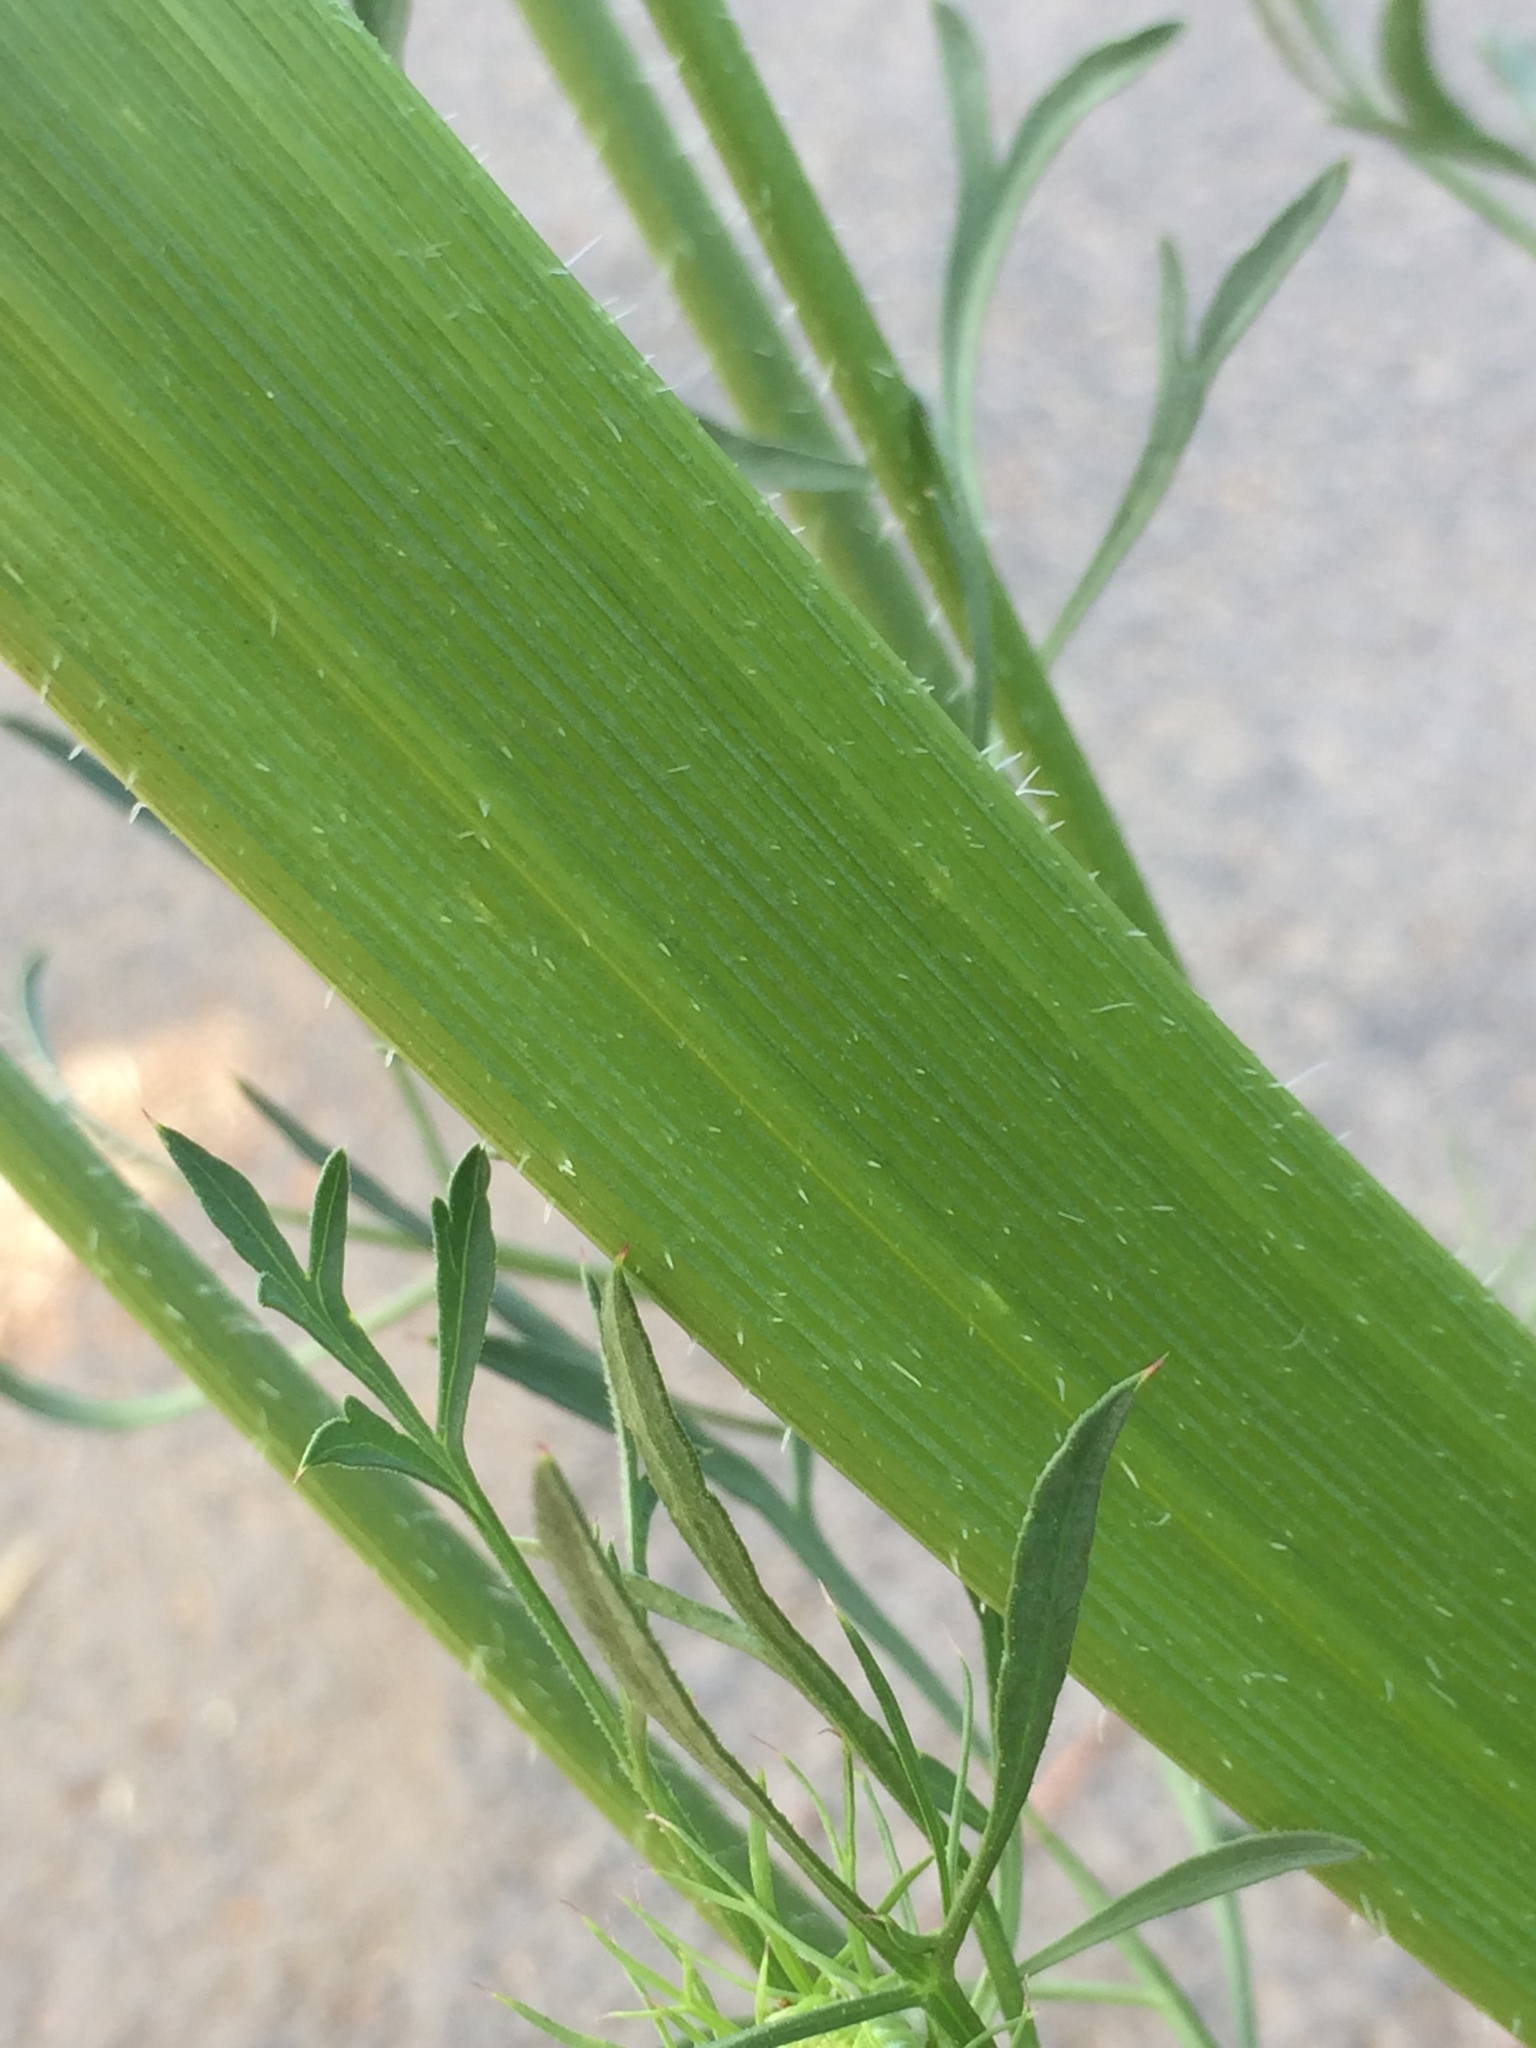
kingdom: Plantae
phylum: Tracheophyta
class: Magnoliopsida
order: Apiales
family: Apiaceae
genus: Daucus
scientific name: Daucus carota
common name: Wild carrot
